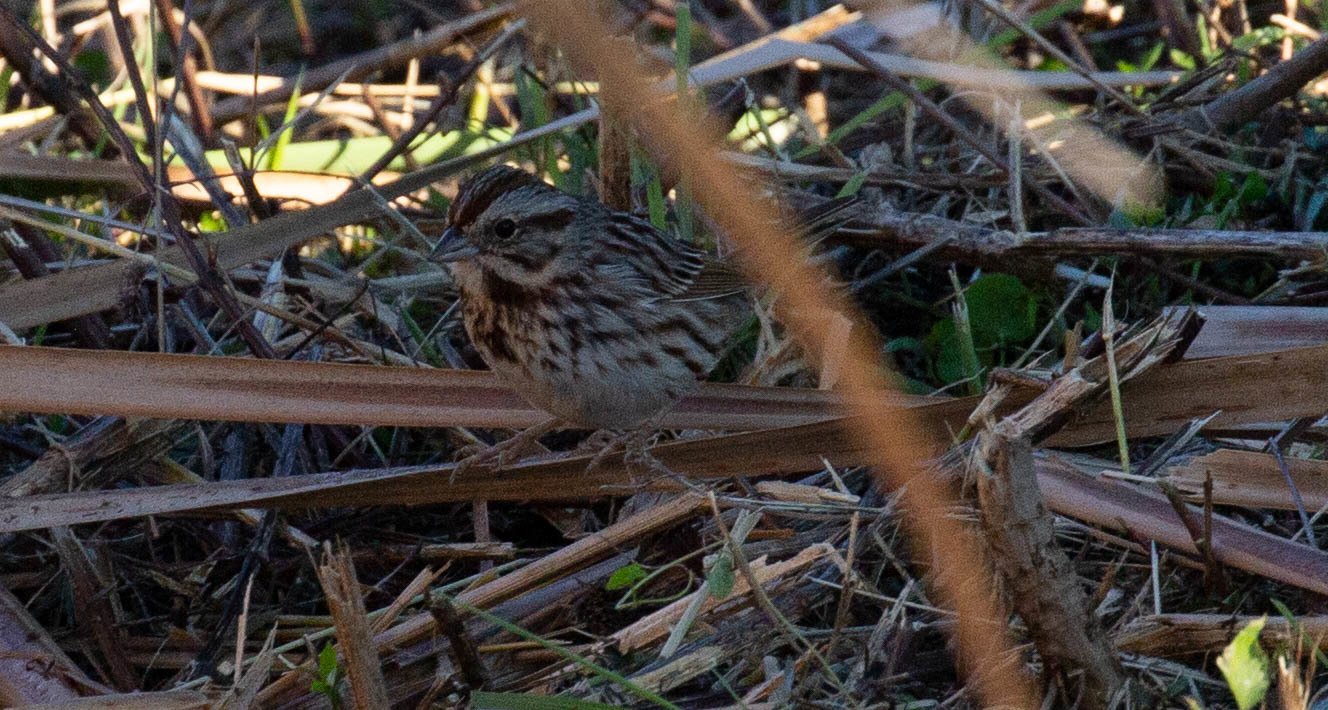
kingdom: Animalia
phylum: Chordata
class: Aves
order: Passeriformes
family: Passerellidae
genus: Melospiza
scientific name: Melospiza melodia
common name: Song sparrow
